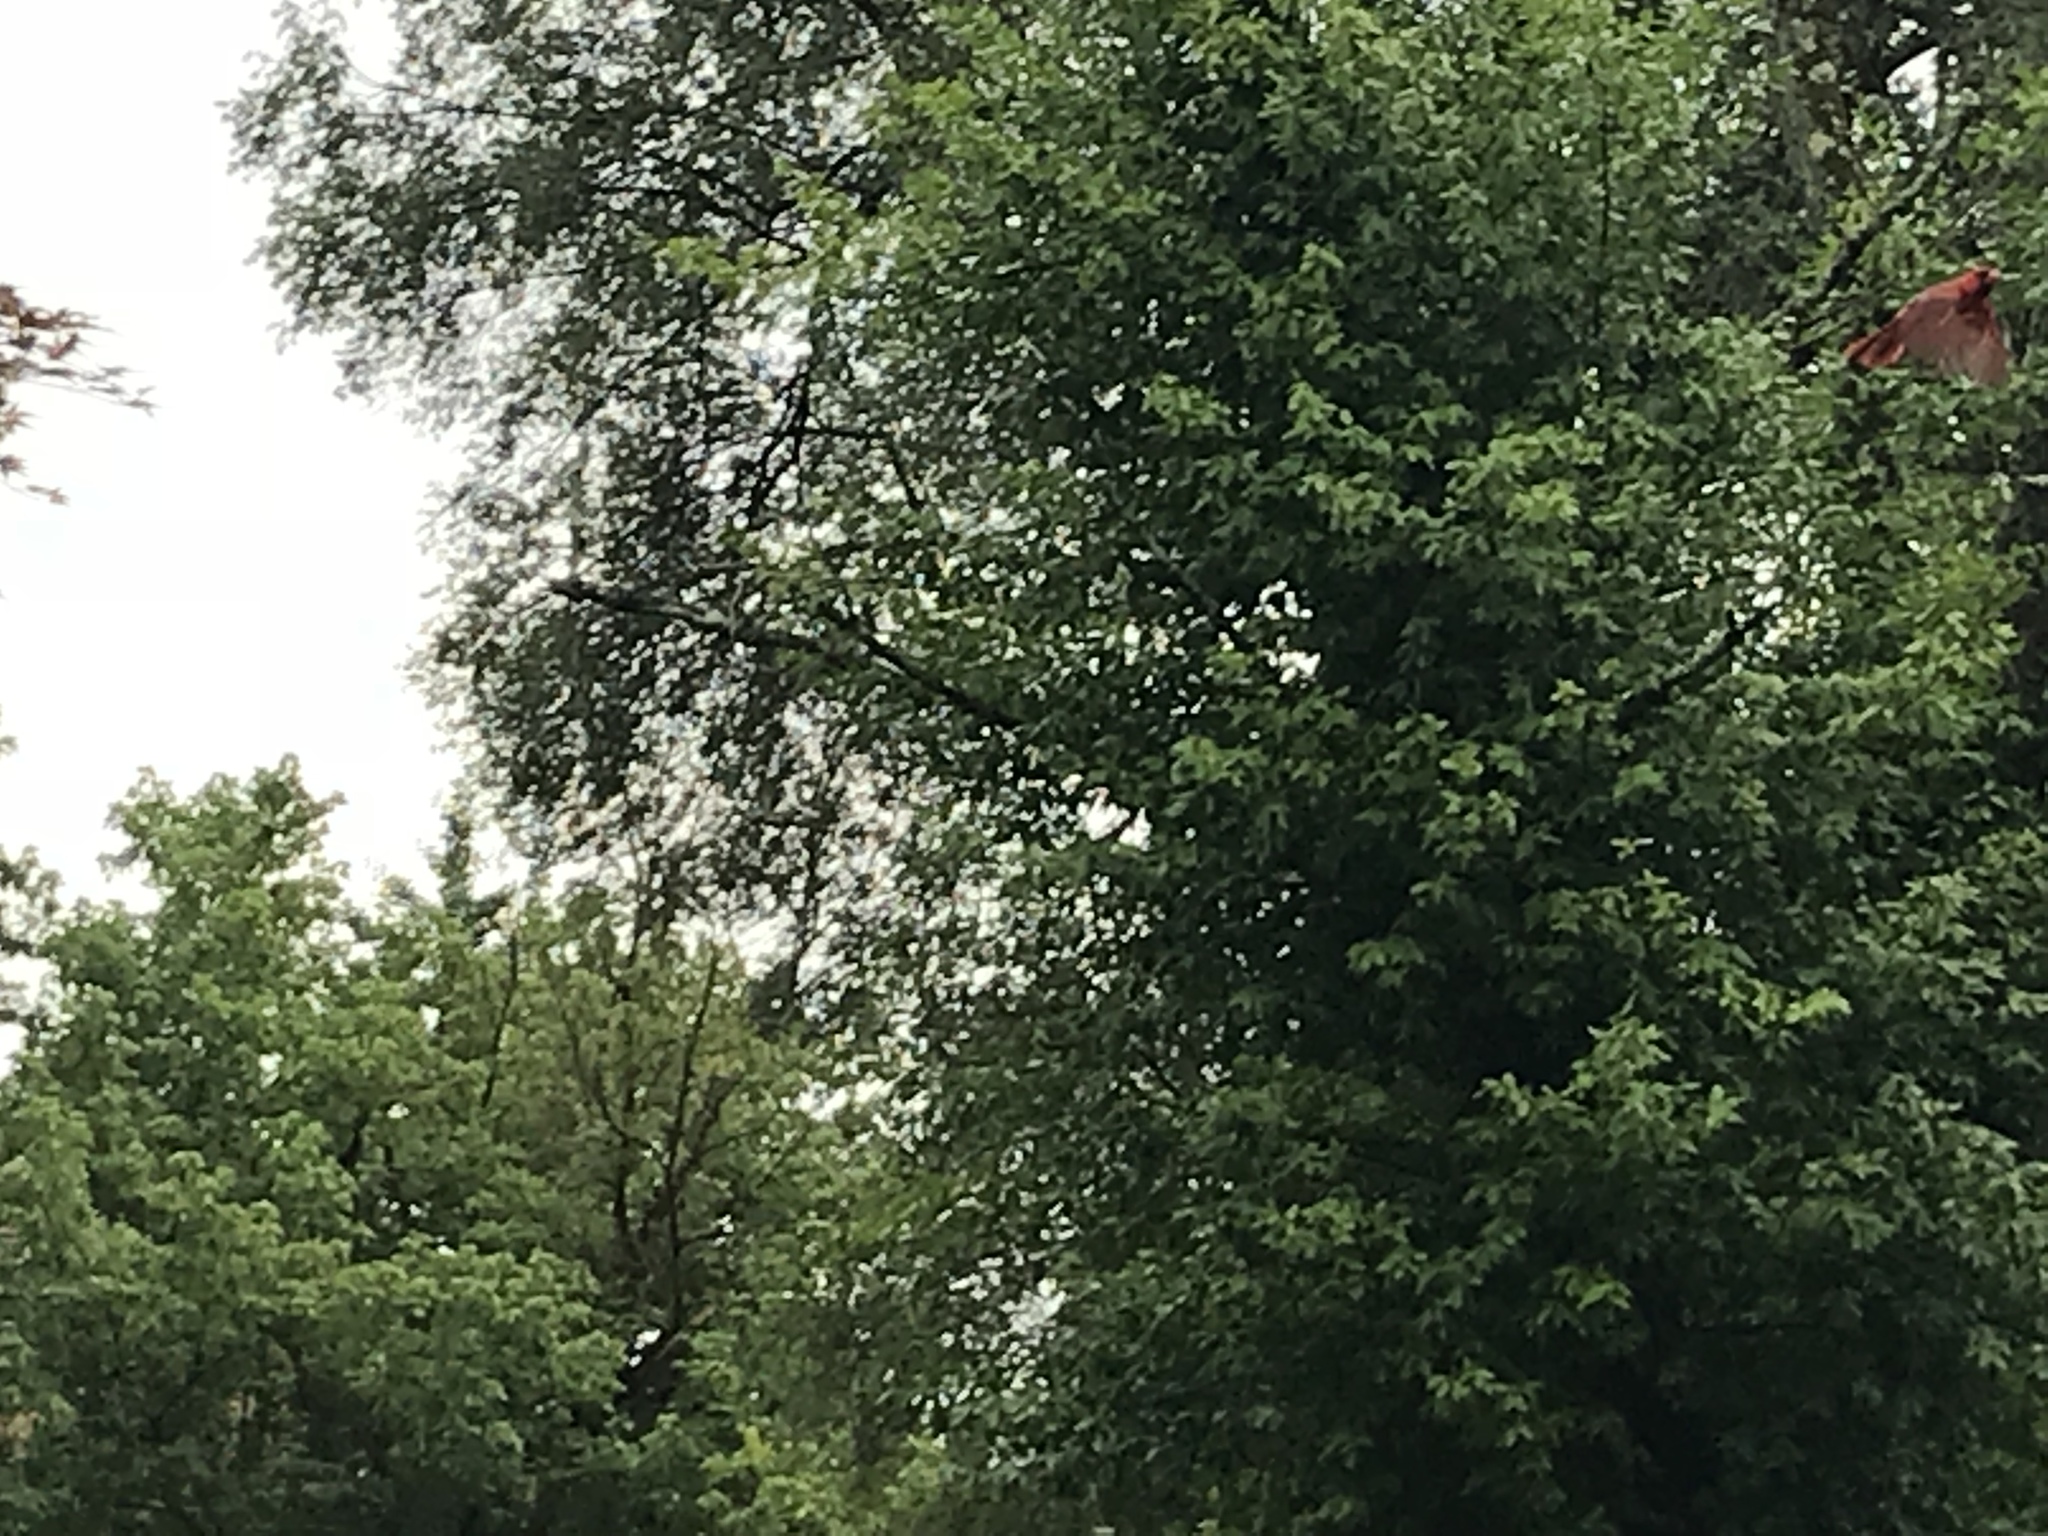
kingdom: Animalia
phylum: Chordata
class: Aves
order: Passeriformes
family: Cardinalidae
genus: Cardinalis
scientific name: Cardinalis cardinalis
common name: Northern cardinal
